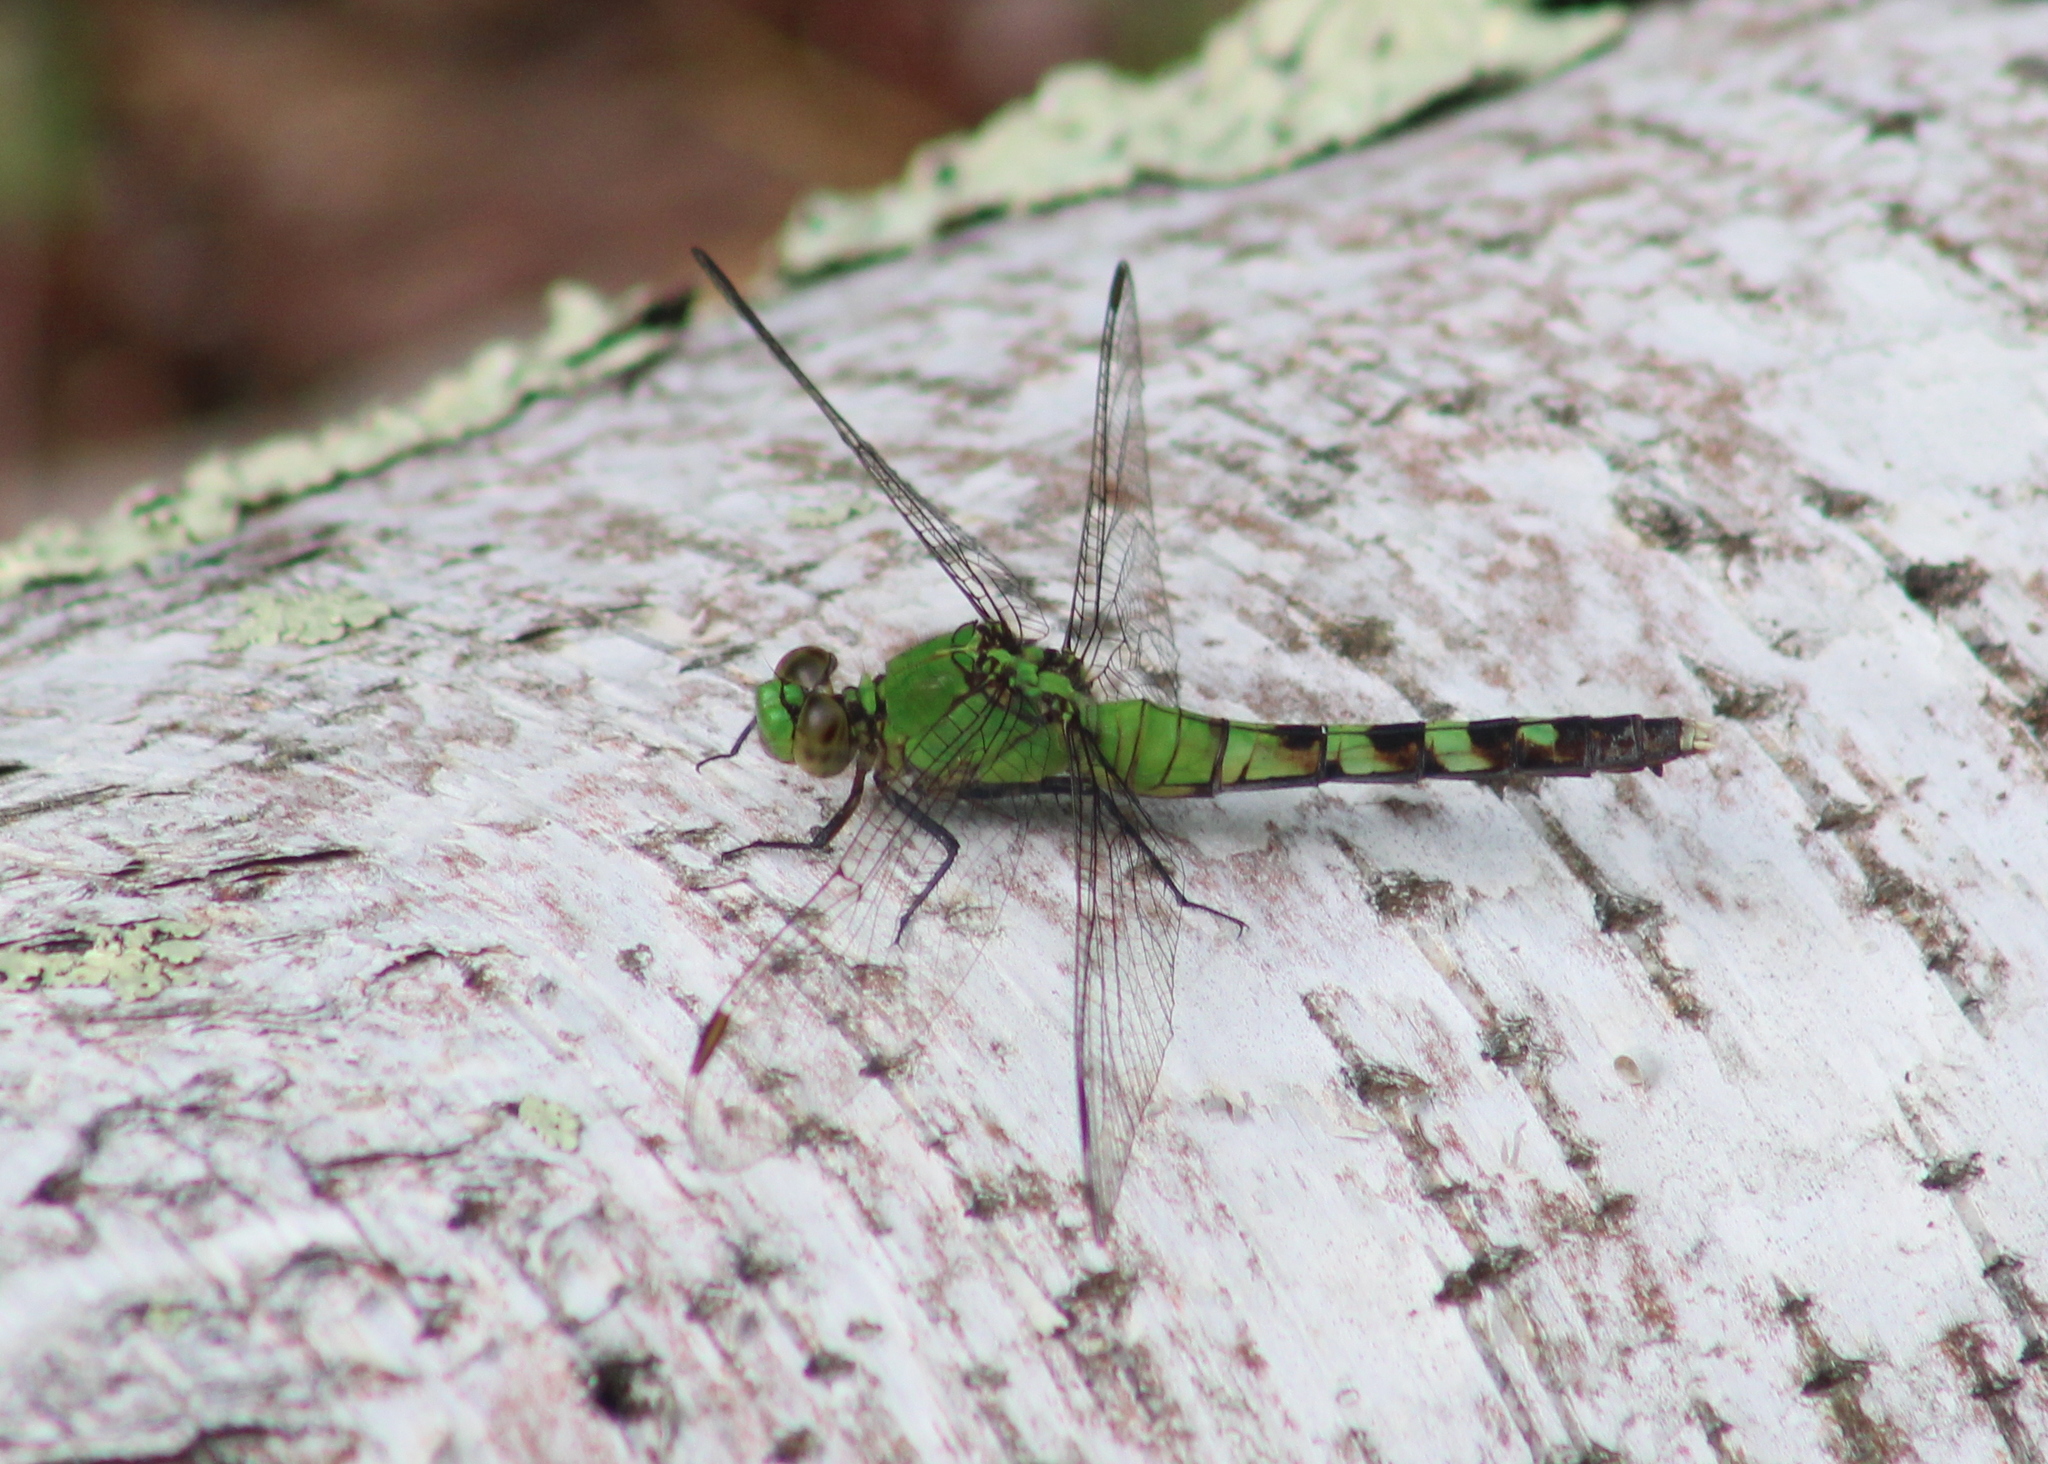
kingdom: Animalia
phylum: Arthropoda
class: Insecta
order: Odonata
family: Libellulidae
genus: Erythemis
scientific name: Erythemis simplicicollis
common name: Eastern pondhawk
